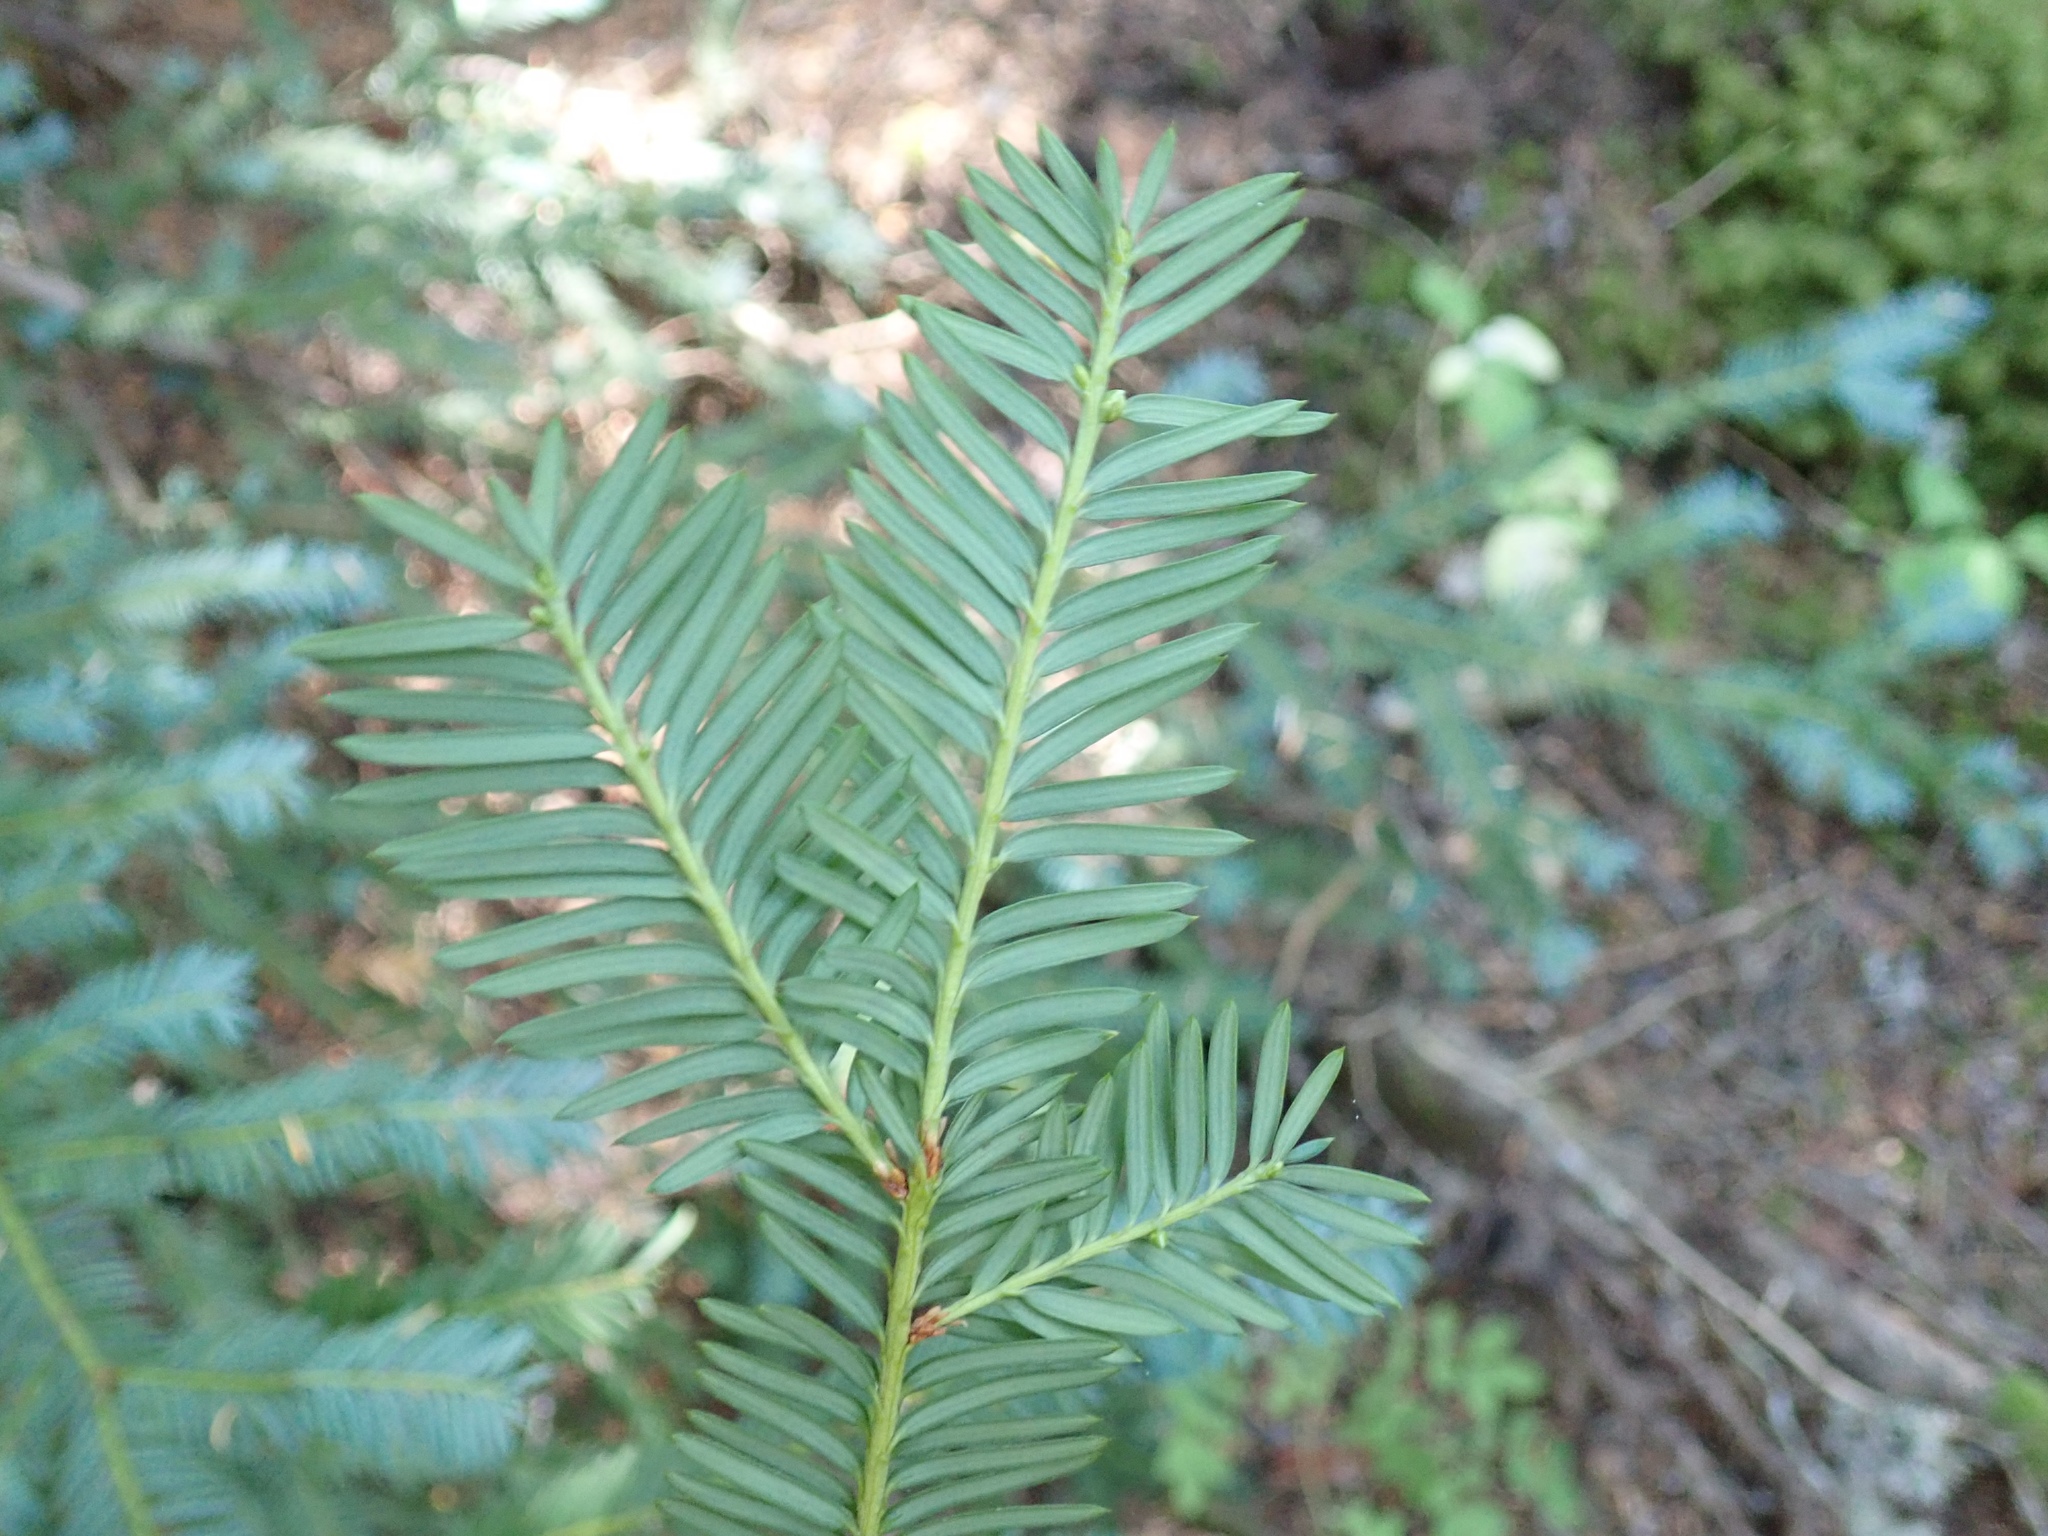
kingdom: Plantae
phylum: Tracheophyta
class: Pinopsida
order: Pinales
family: Taxaceae
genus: Taxus
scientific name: Taxus brevifolia
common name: Pacific yew
